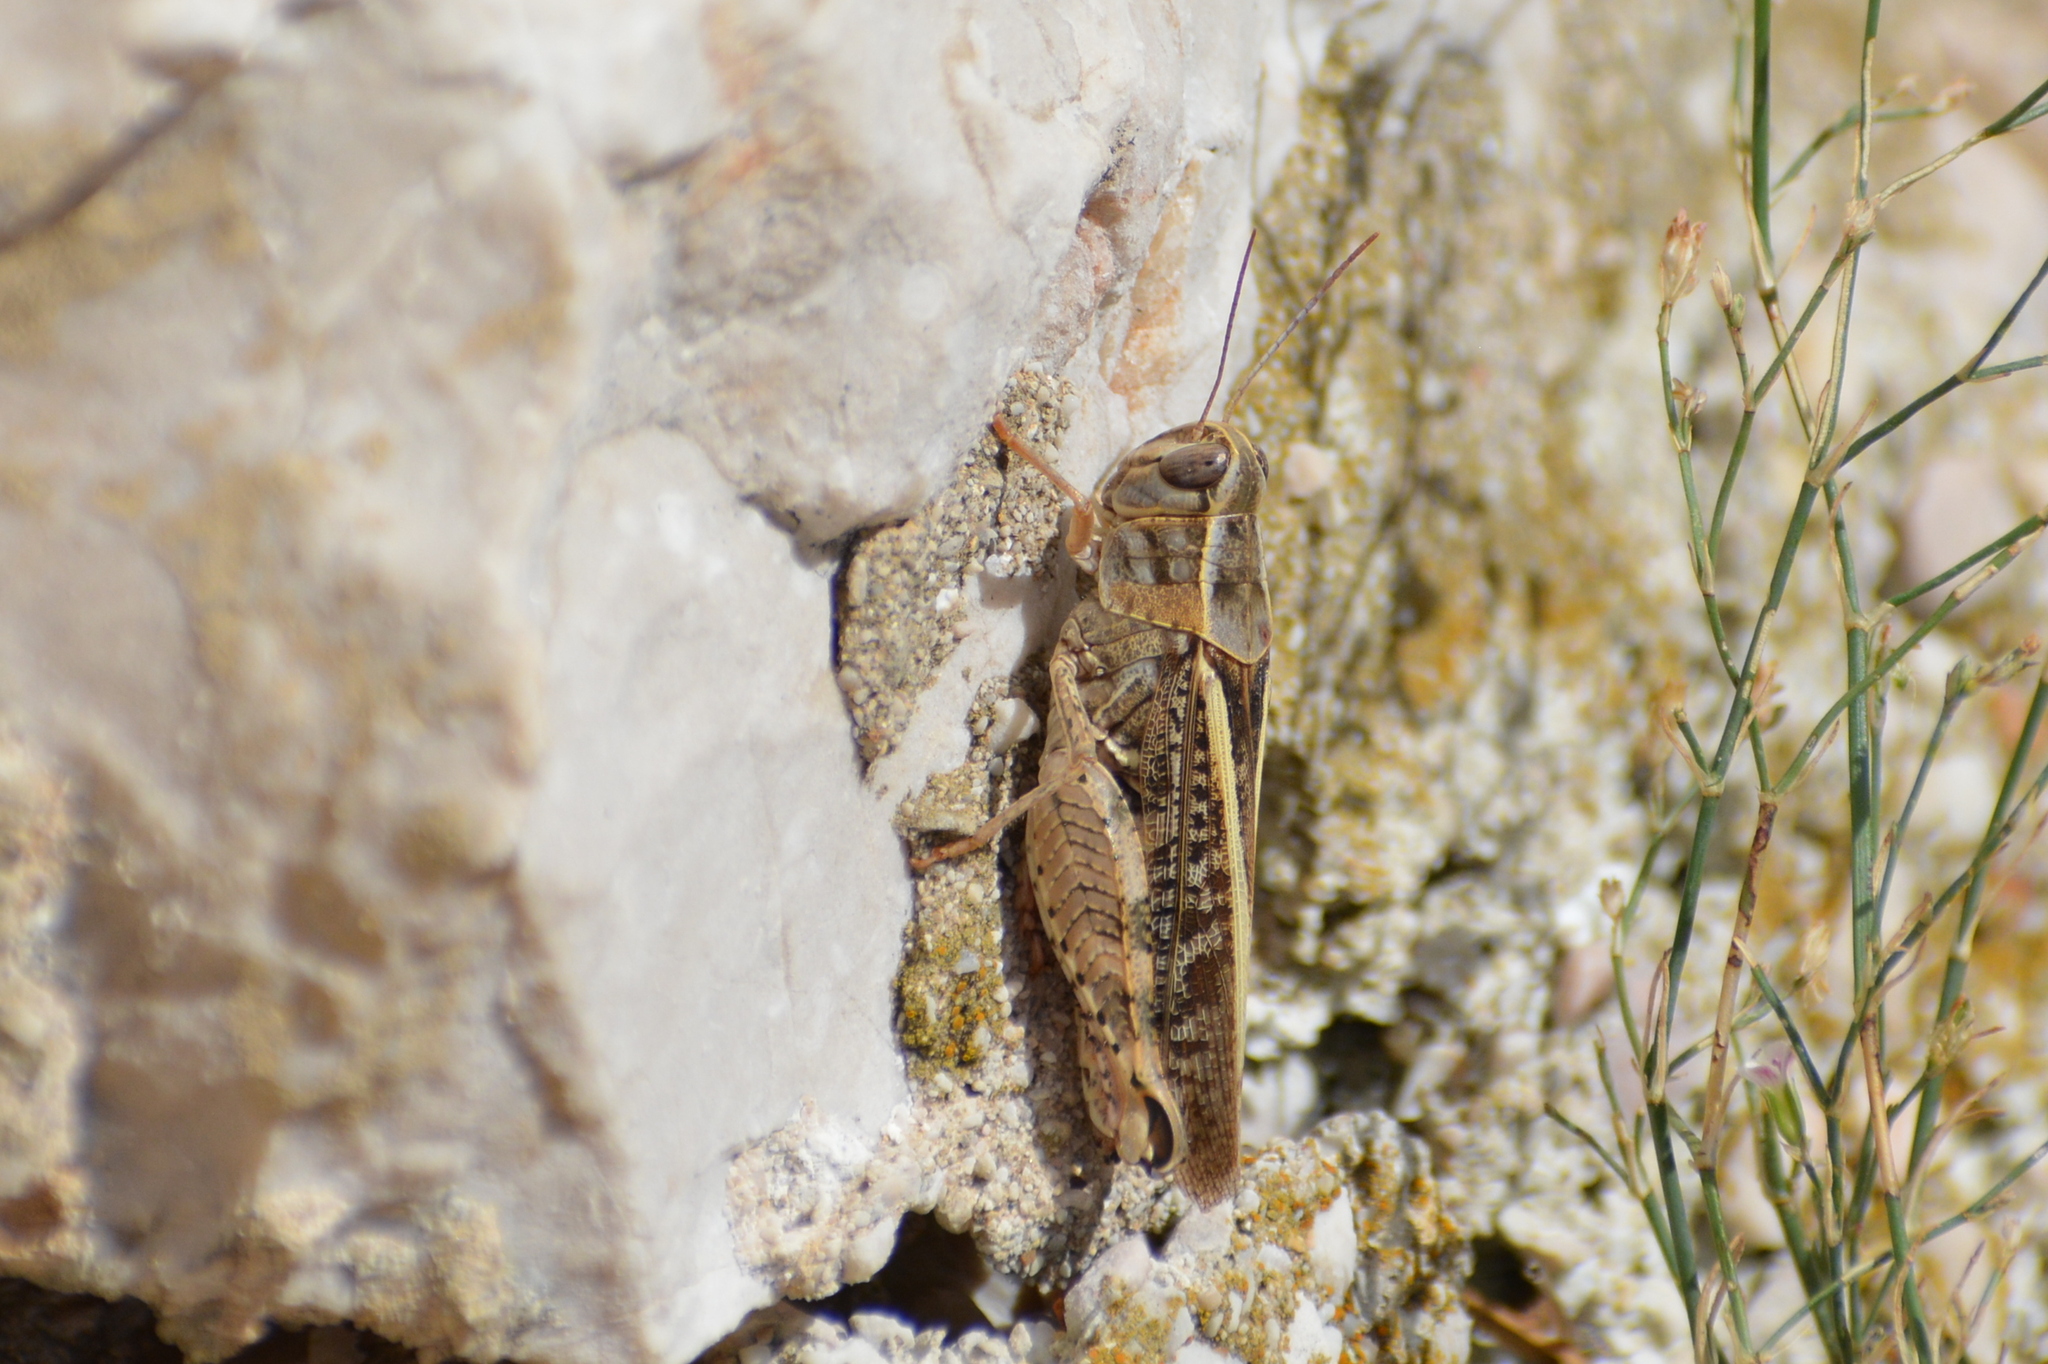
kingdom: Animalia
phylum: Arthropoda
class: Insecta
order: Orthoptera
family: Acrididae
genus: Calliptamus
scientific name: Calliptamus italicus
